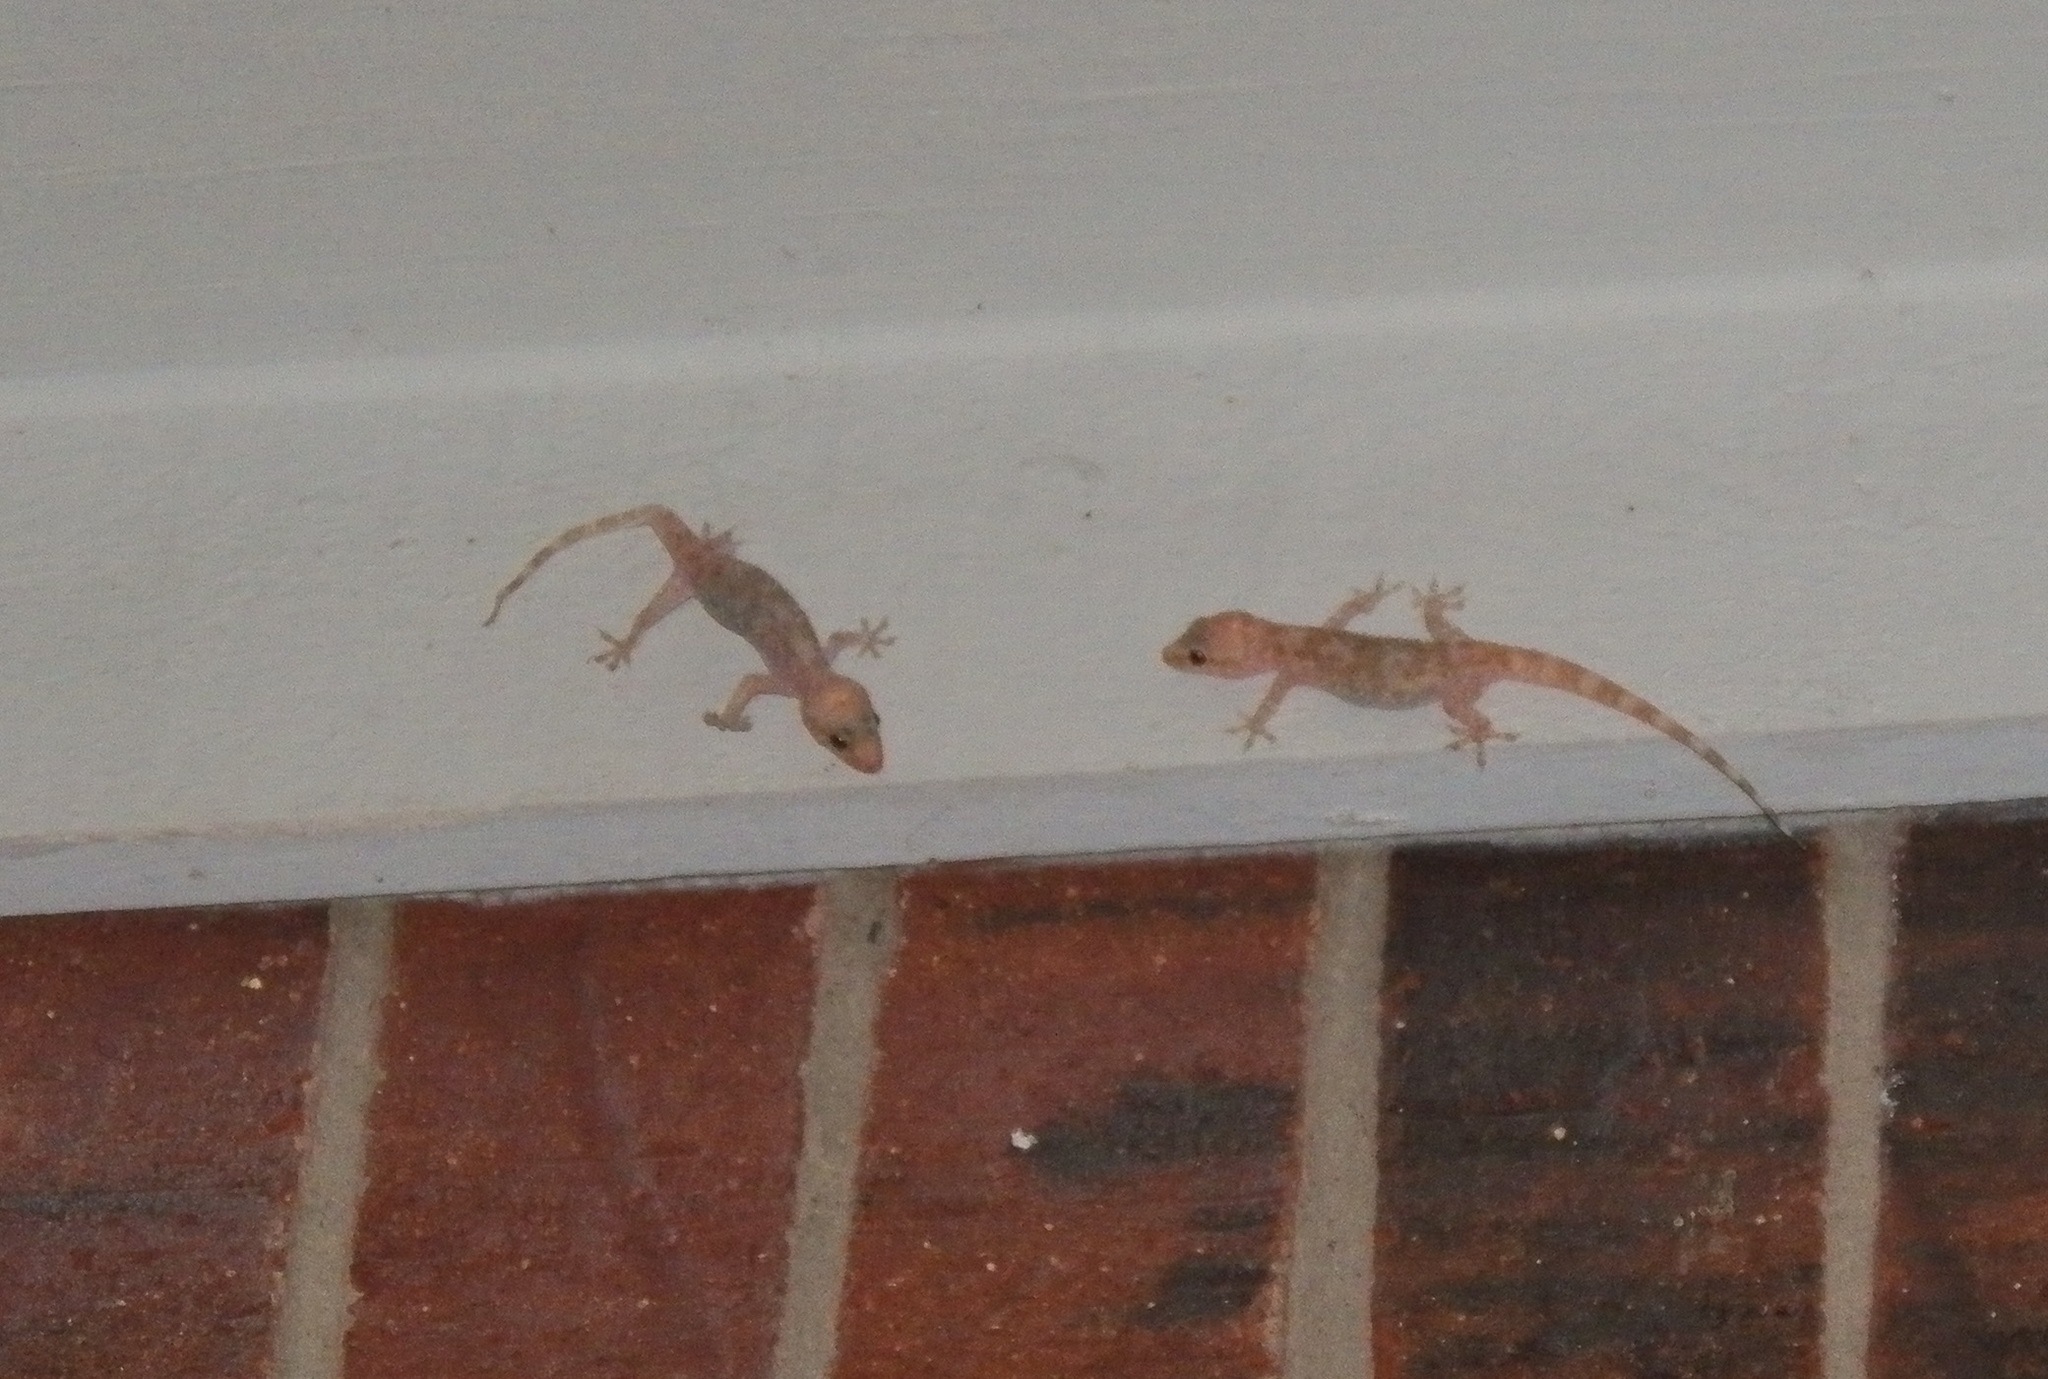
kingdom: Animalia
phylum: Chordata
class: Squamata
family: Gekkonidae
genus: Hemidactylus
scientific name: Hemidactylus turcicus
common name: Turkish gecko
